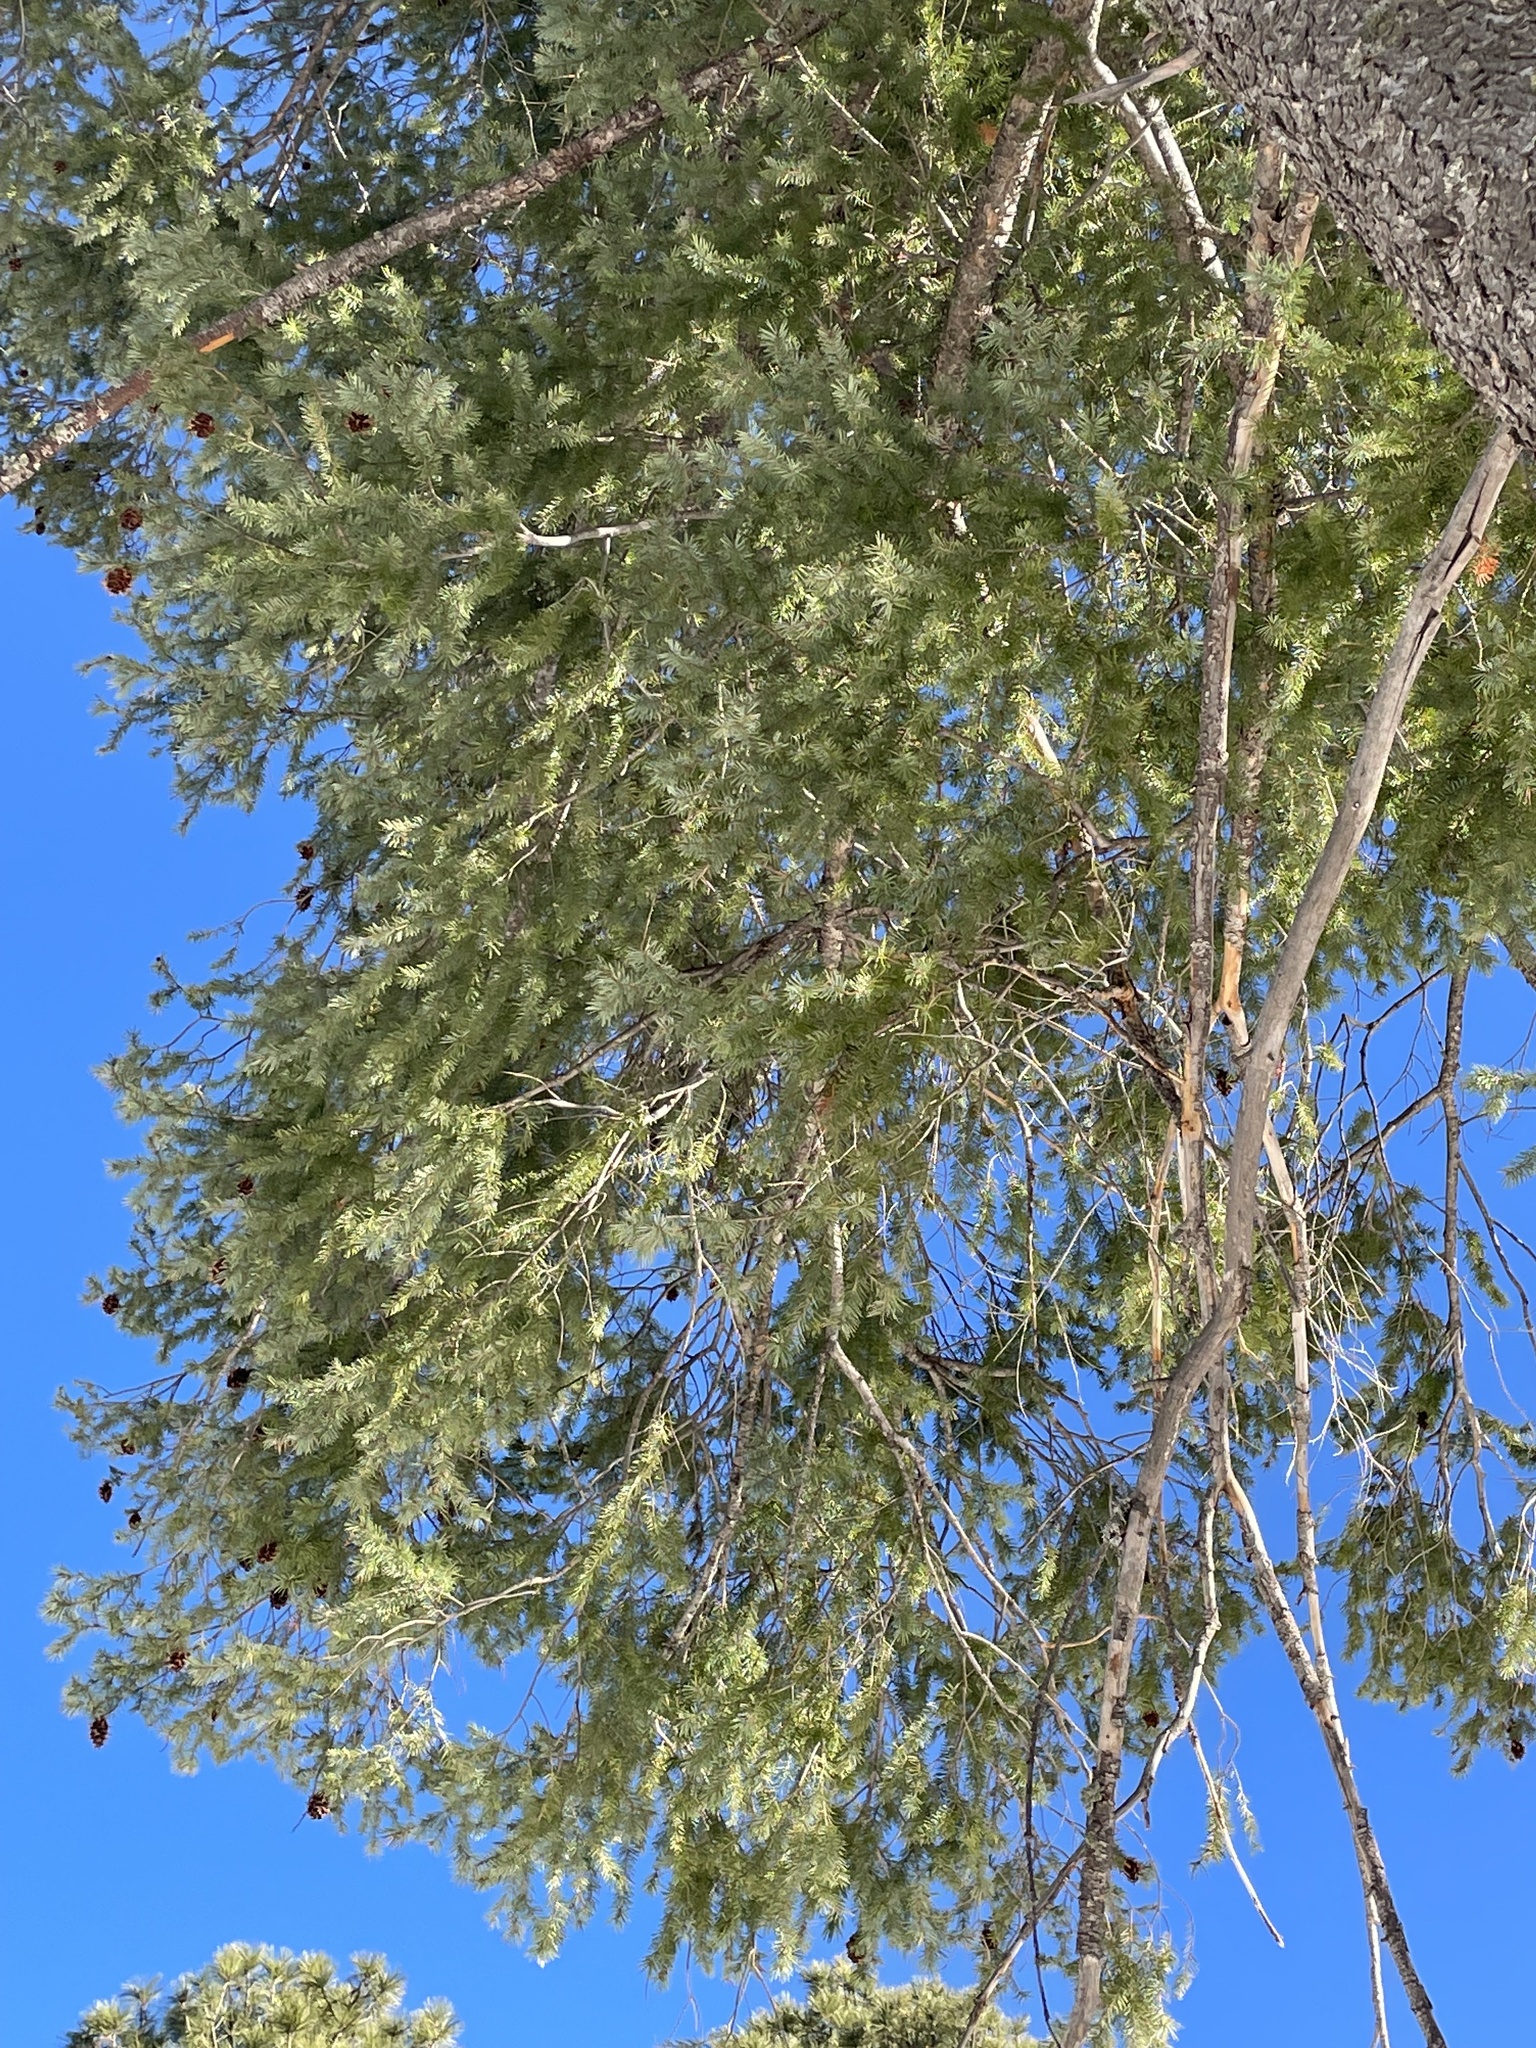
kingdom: Plantae
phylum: Tracheophyta
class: Pinopsida
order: Pinales
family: Pinaceae
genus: Pseudotsuga
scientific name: Pseudotsuga menziesii
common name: Douglas fir
